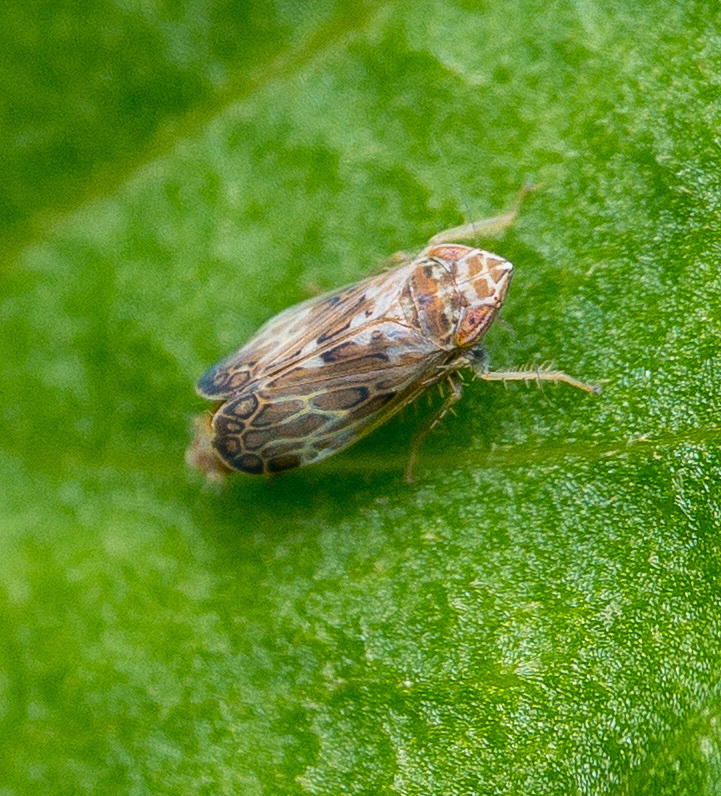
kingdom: Animalia
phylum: Arthropoda
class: Insecta
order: Hemiptera
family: Cicadellidae
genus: Latalus
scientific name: Latalus sayii
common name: Say’s leafhopper
